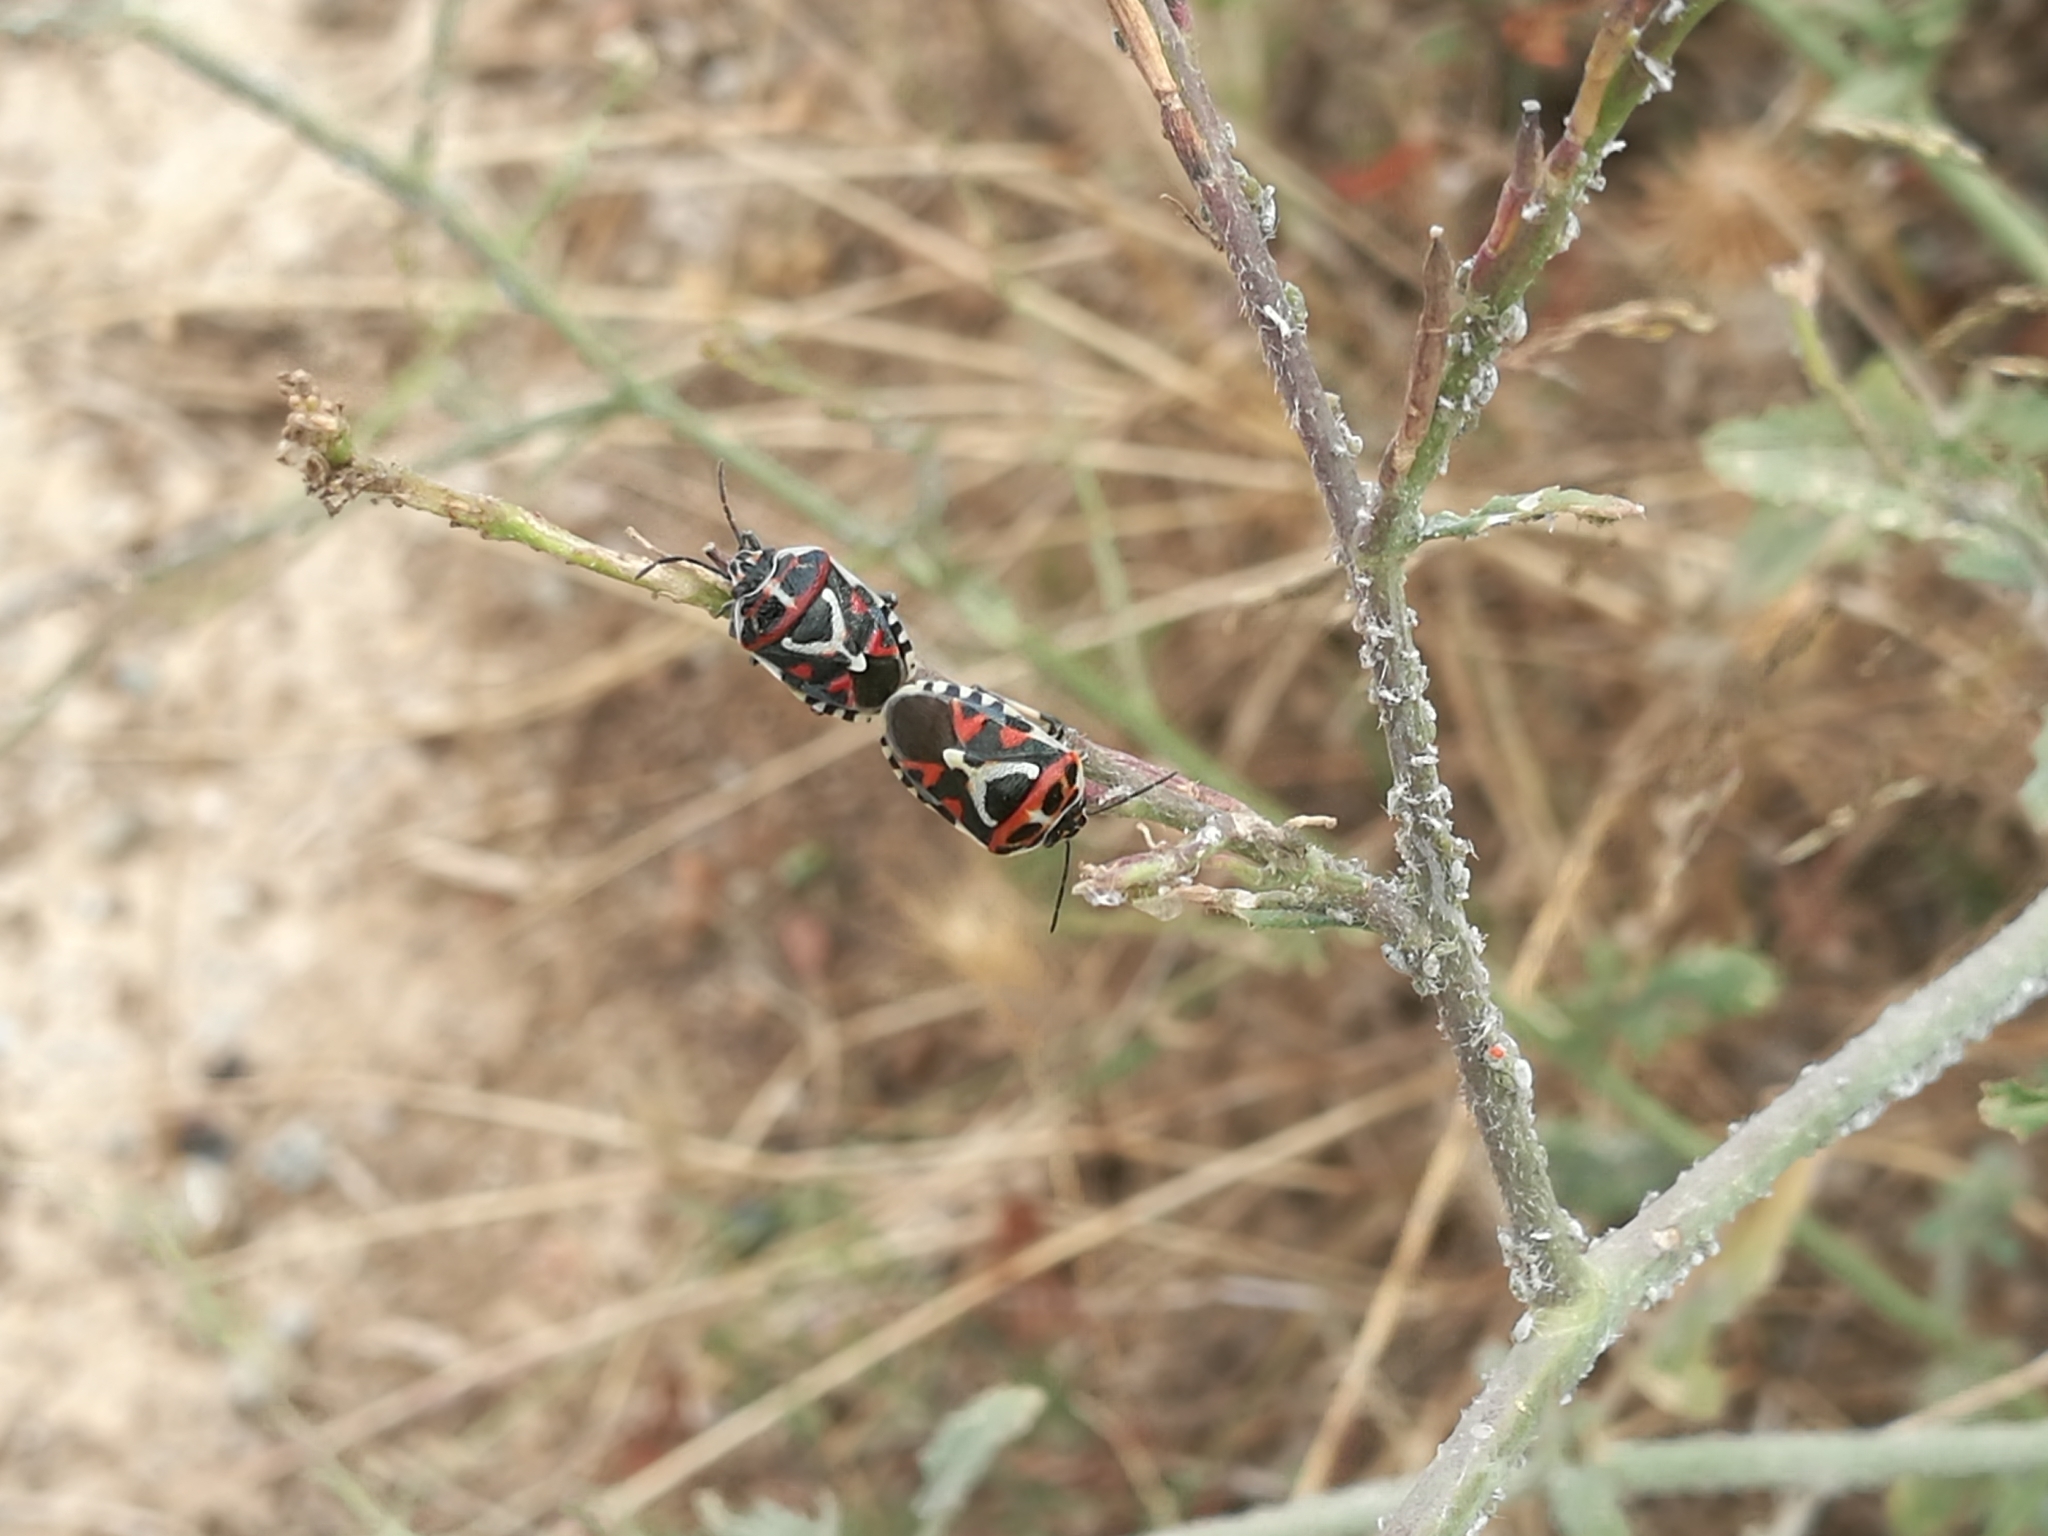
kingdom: Animalia
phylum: Arthropoda
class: Insecta
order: Hemiptera
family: Pentatomidae
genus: Eurydema
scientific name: Eurydema ornata
